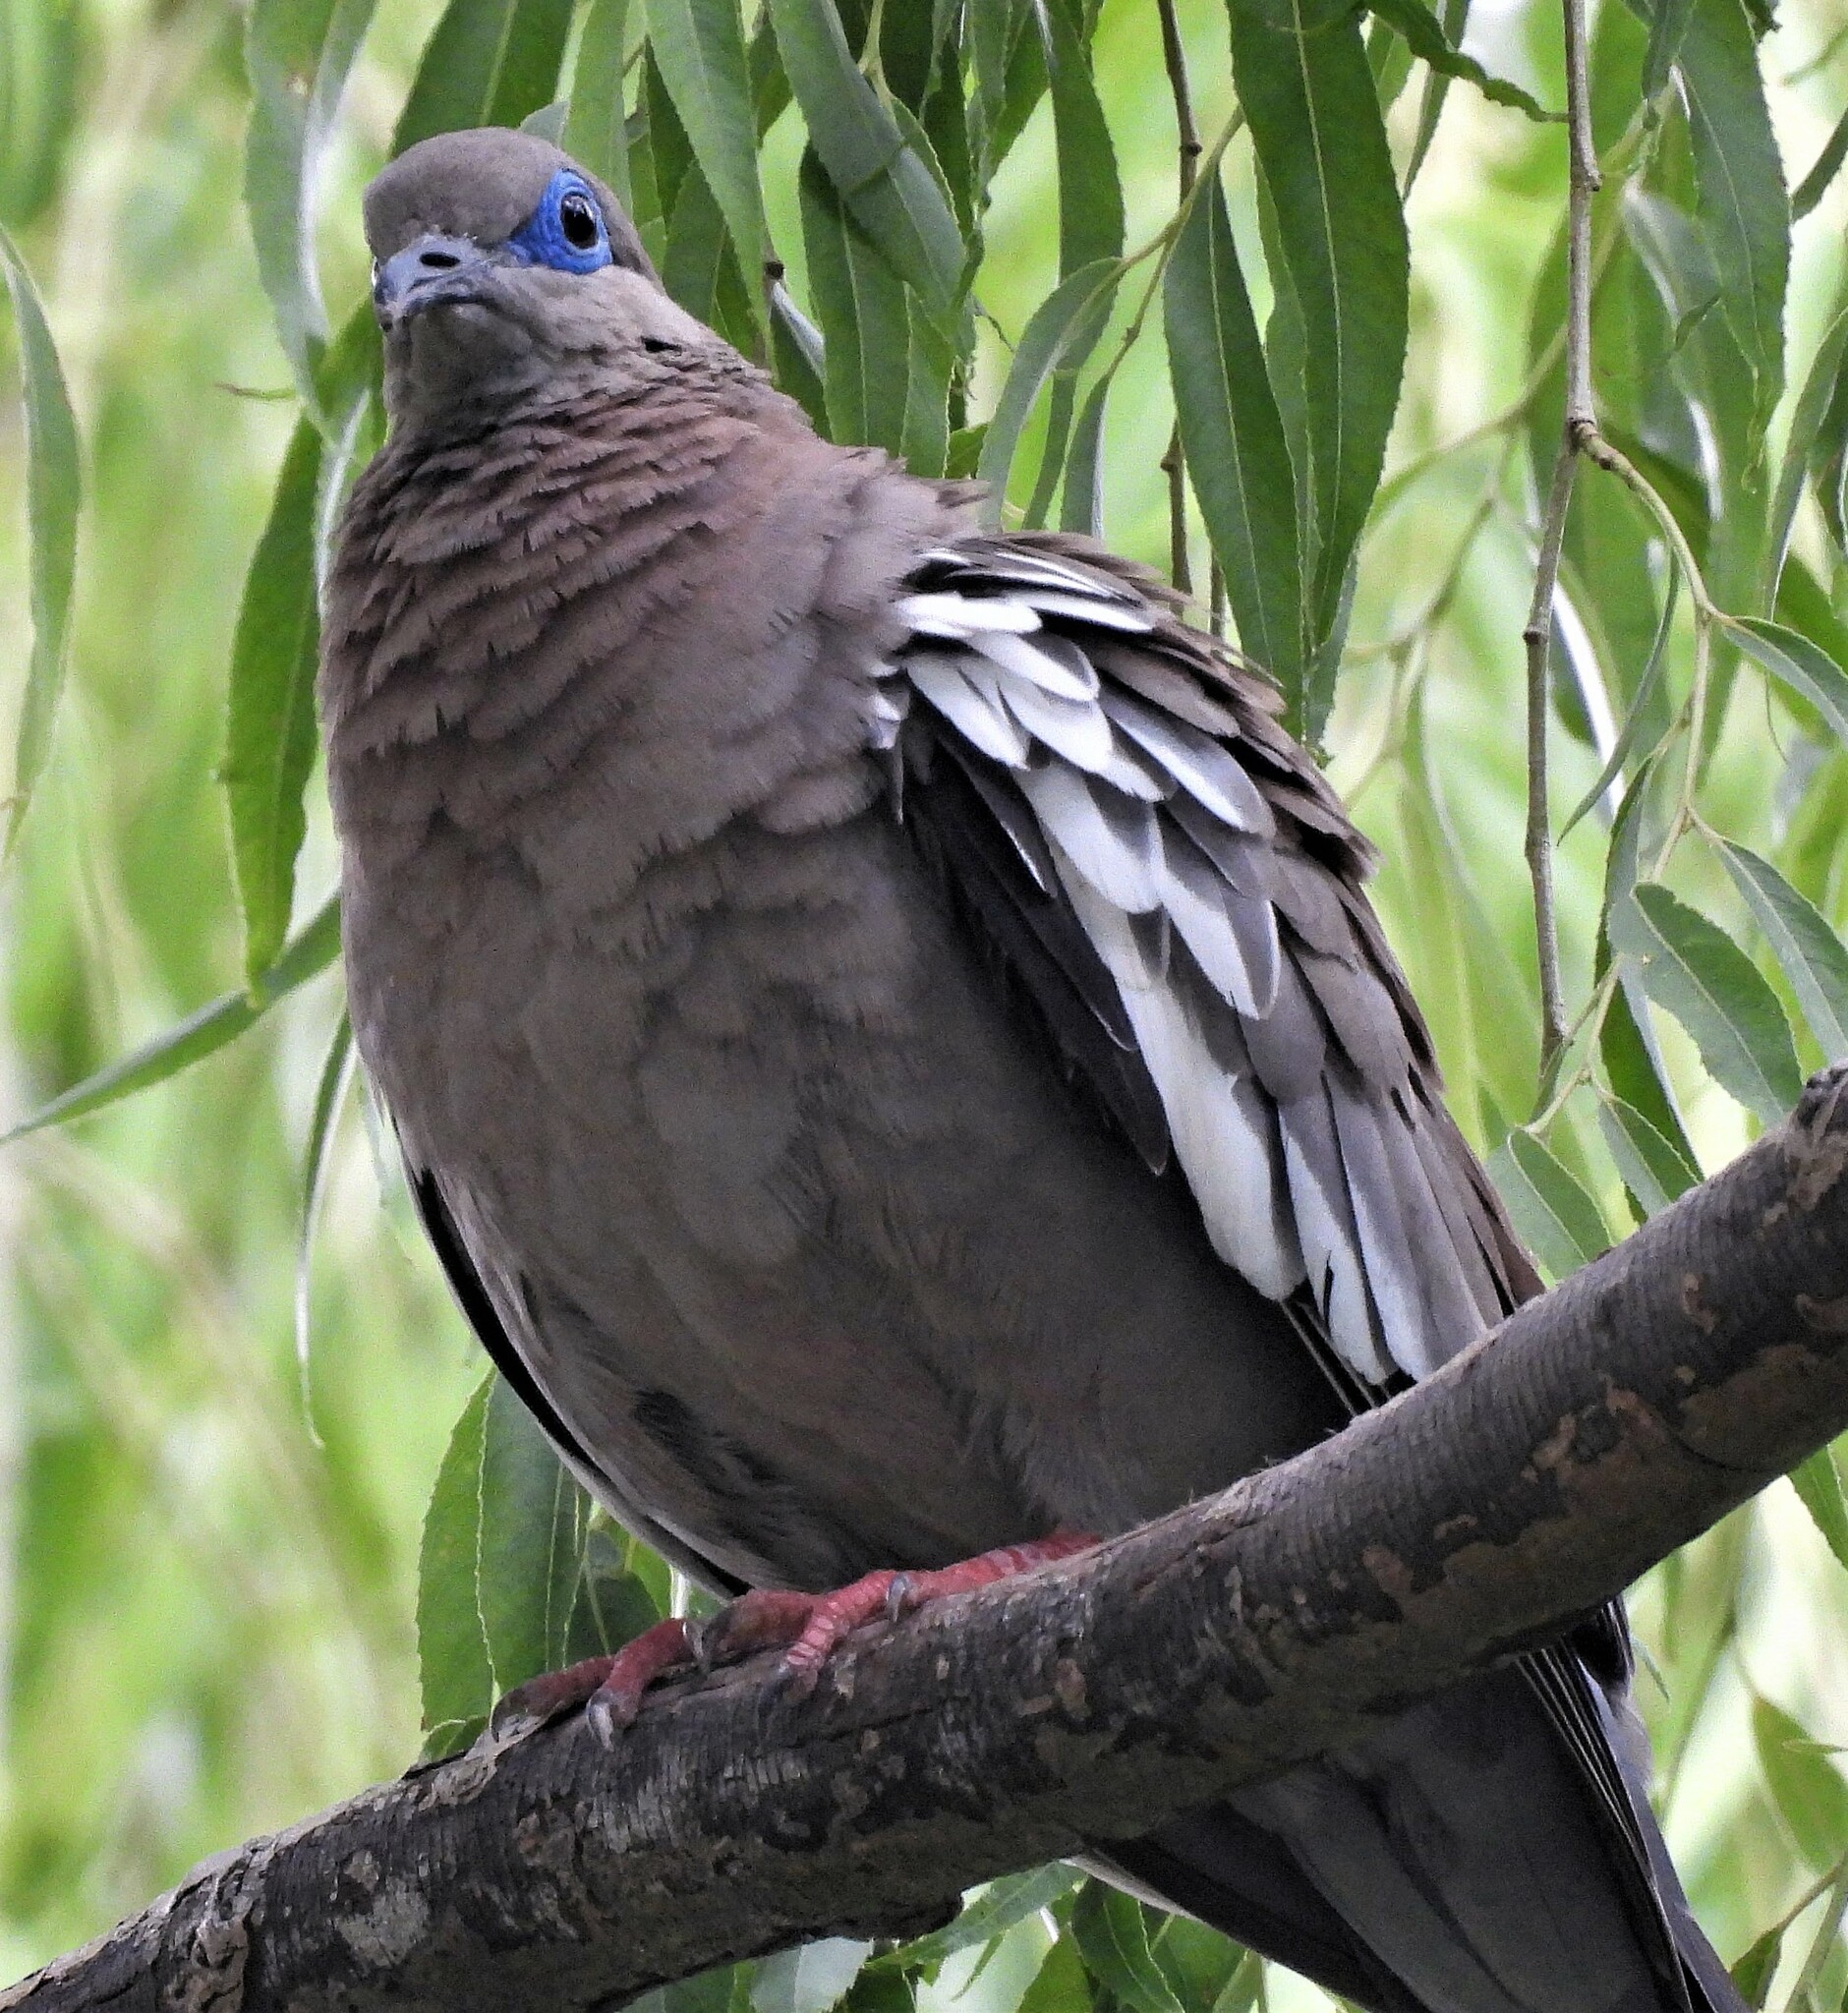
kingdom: Animalia
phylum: Chordata
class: Aves
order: Columbiformes
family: Columbidae
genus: Zenaida
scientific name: Zenaida meloda
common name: West peruvian dove
